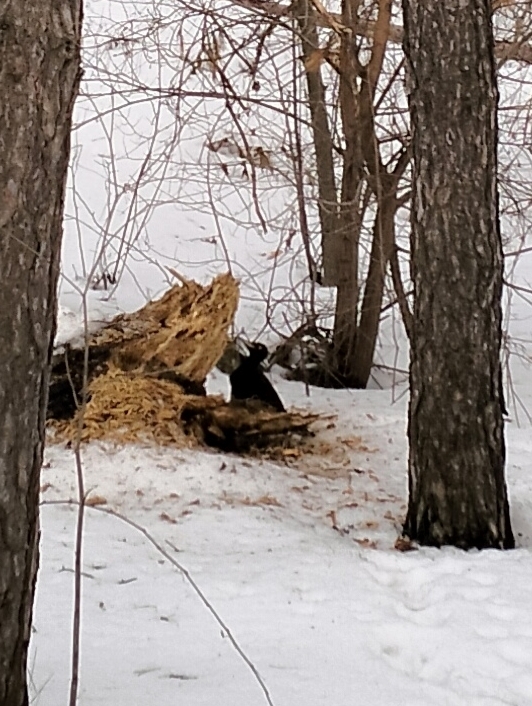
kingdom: Animalia
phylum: Chordata
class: Aves
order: Piciformes
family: Picidae
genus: Dryocopus
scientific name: Dryocopus martius
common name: Black woodpecker
